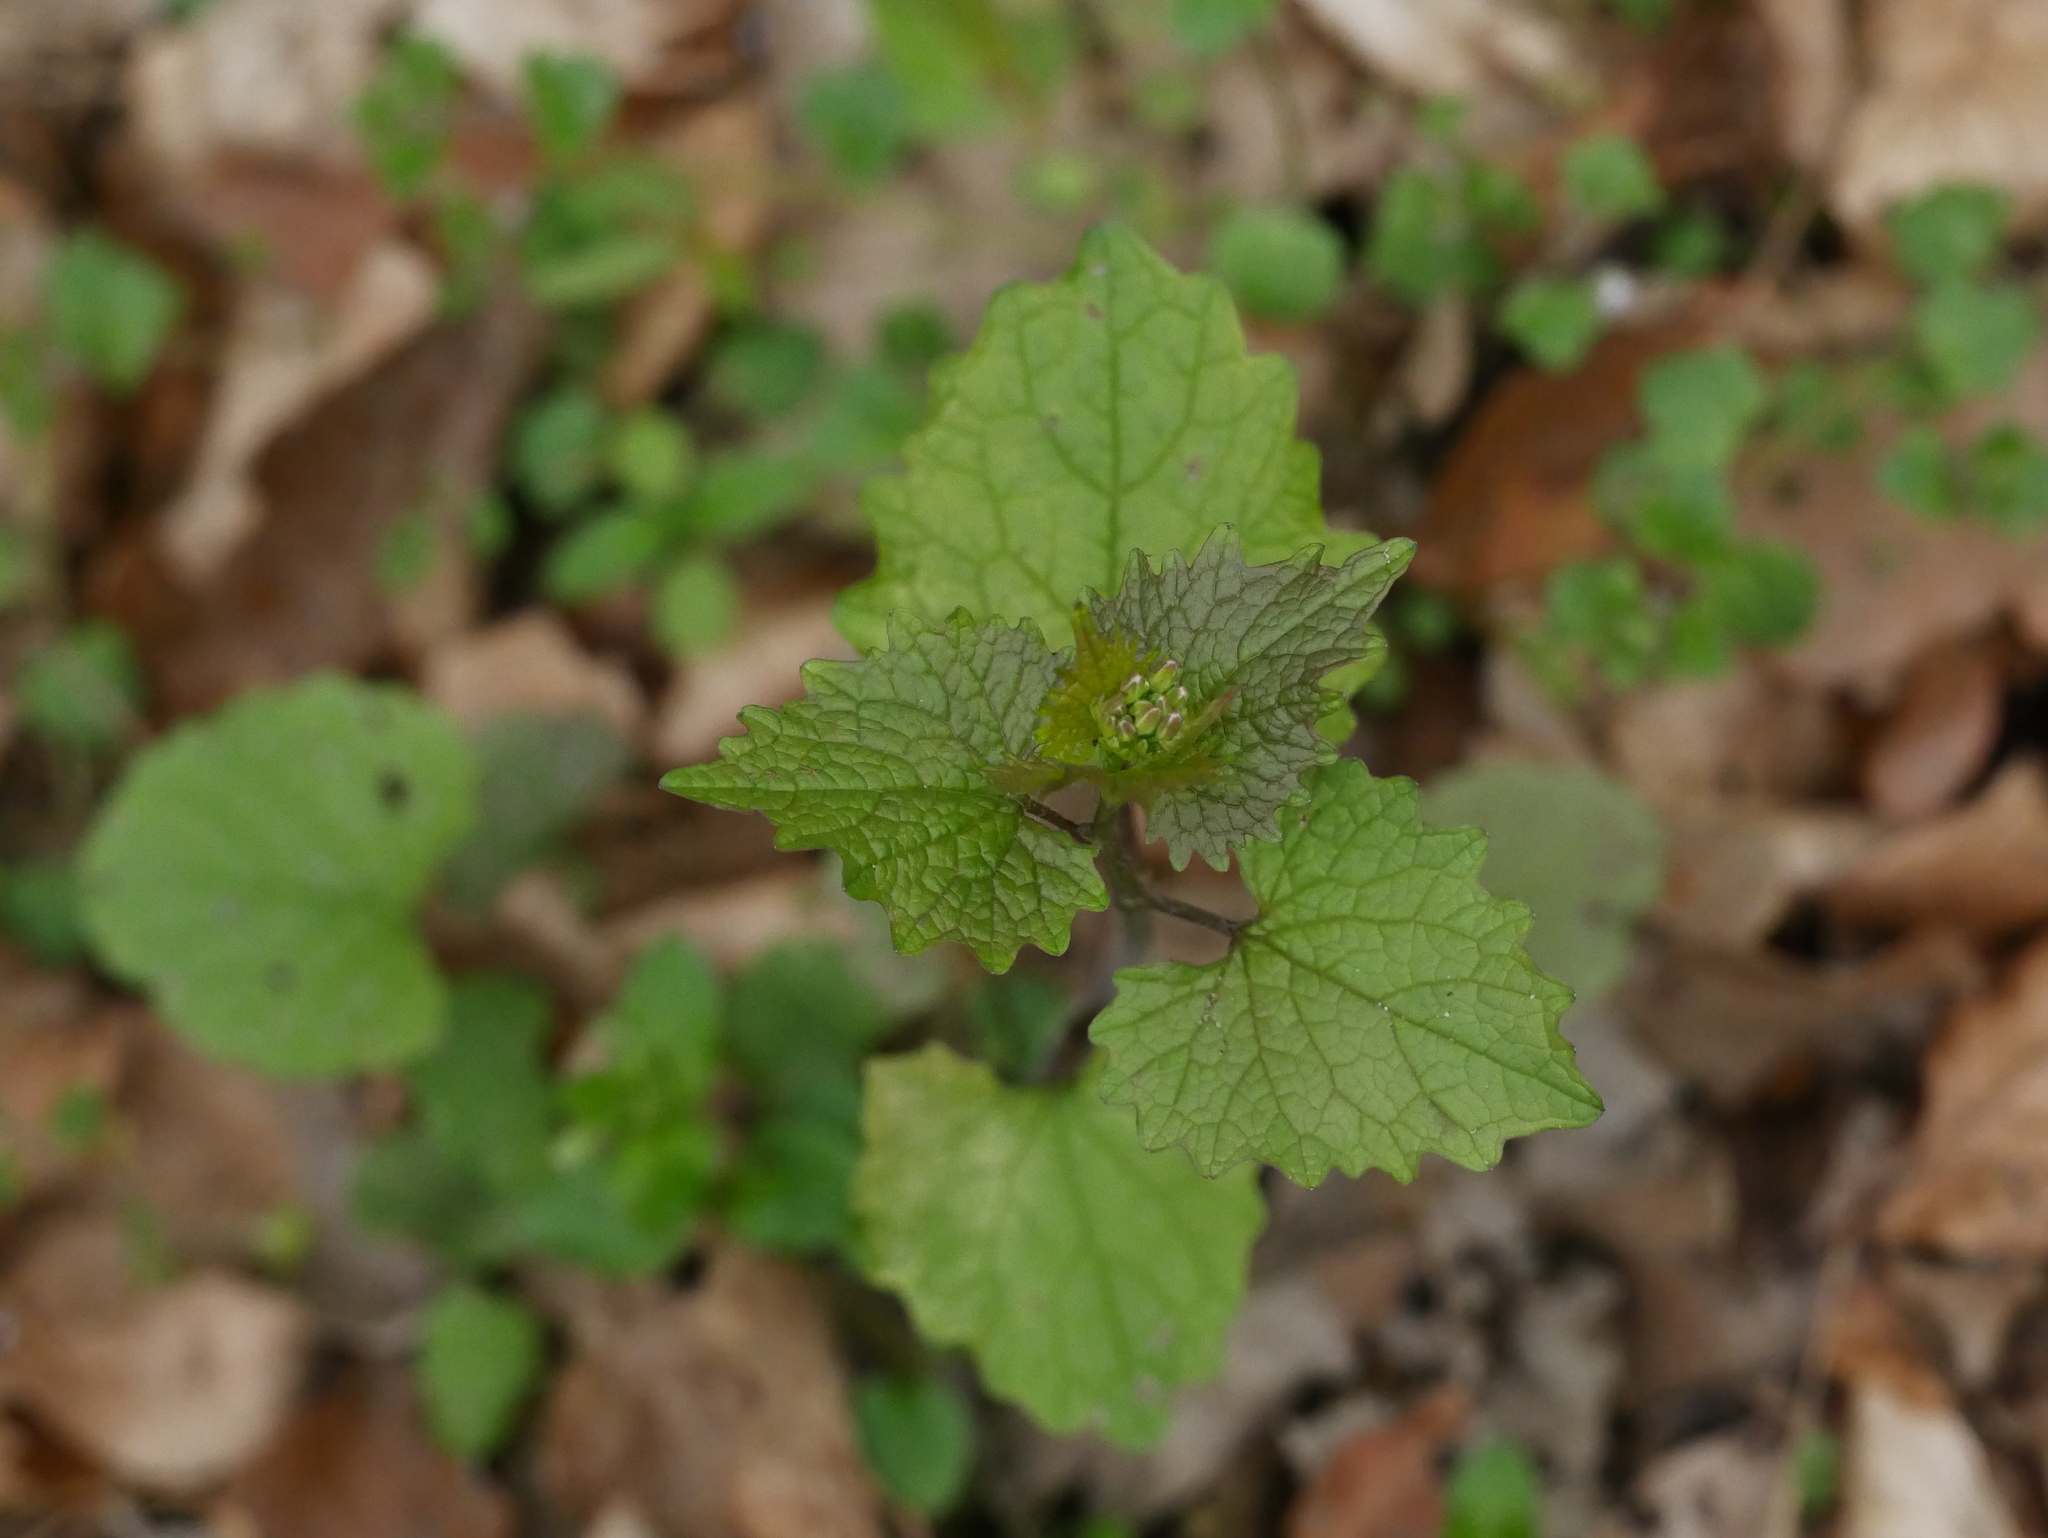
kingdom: Plantae
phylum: Tracheophyta
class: Magnoliopsida
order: Brassicales
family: Brassicaceae
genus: Alliaria
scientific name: Alliaria petiolata
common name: Garlic mustard
